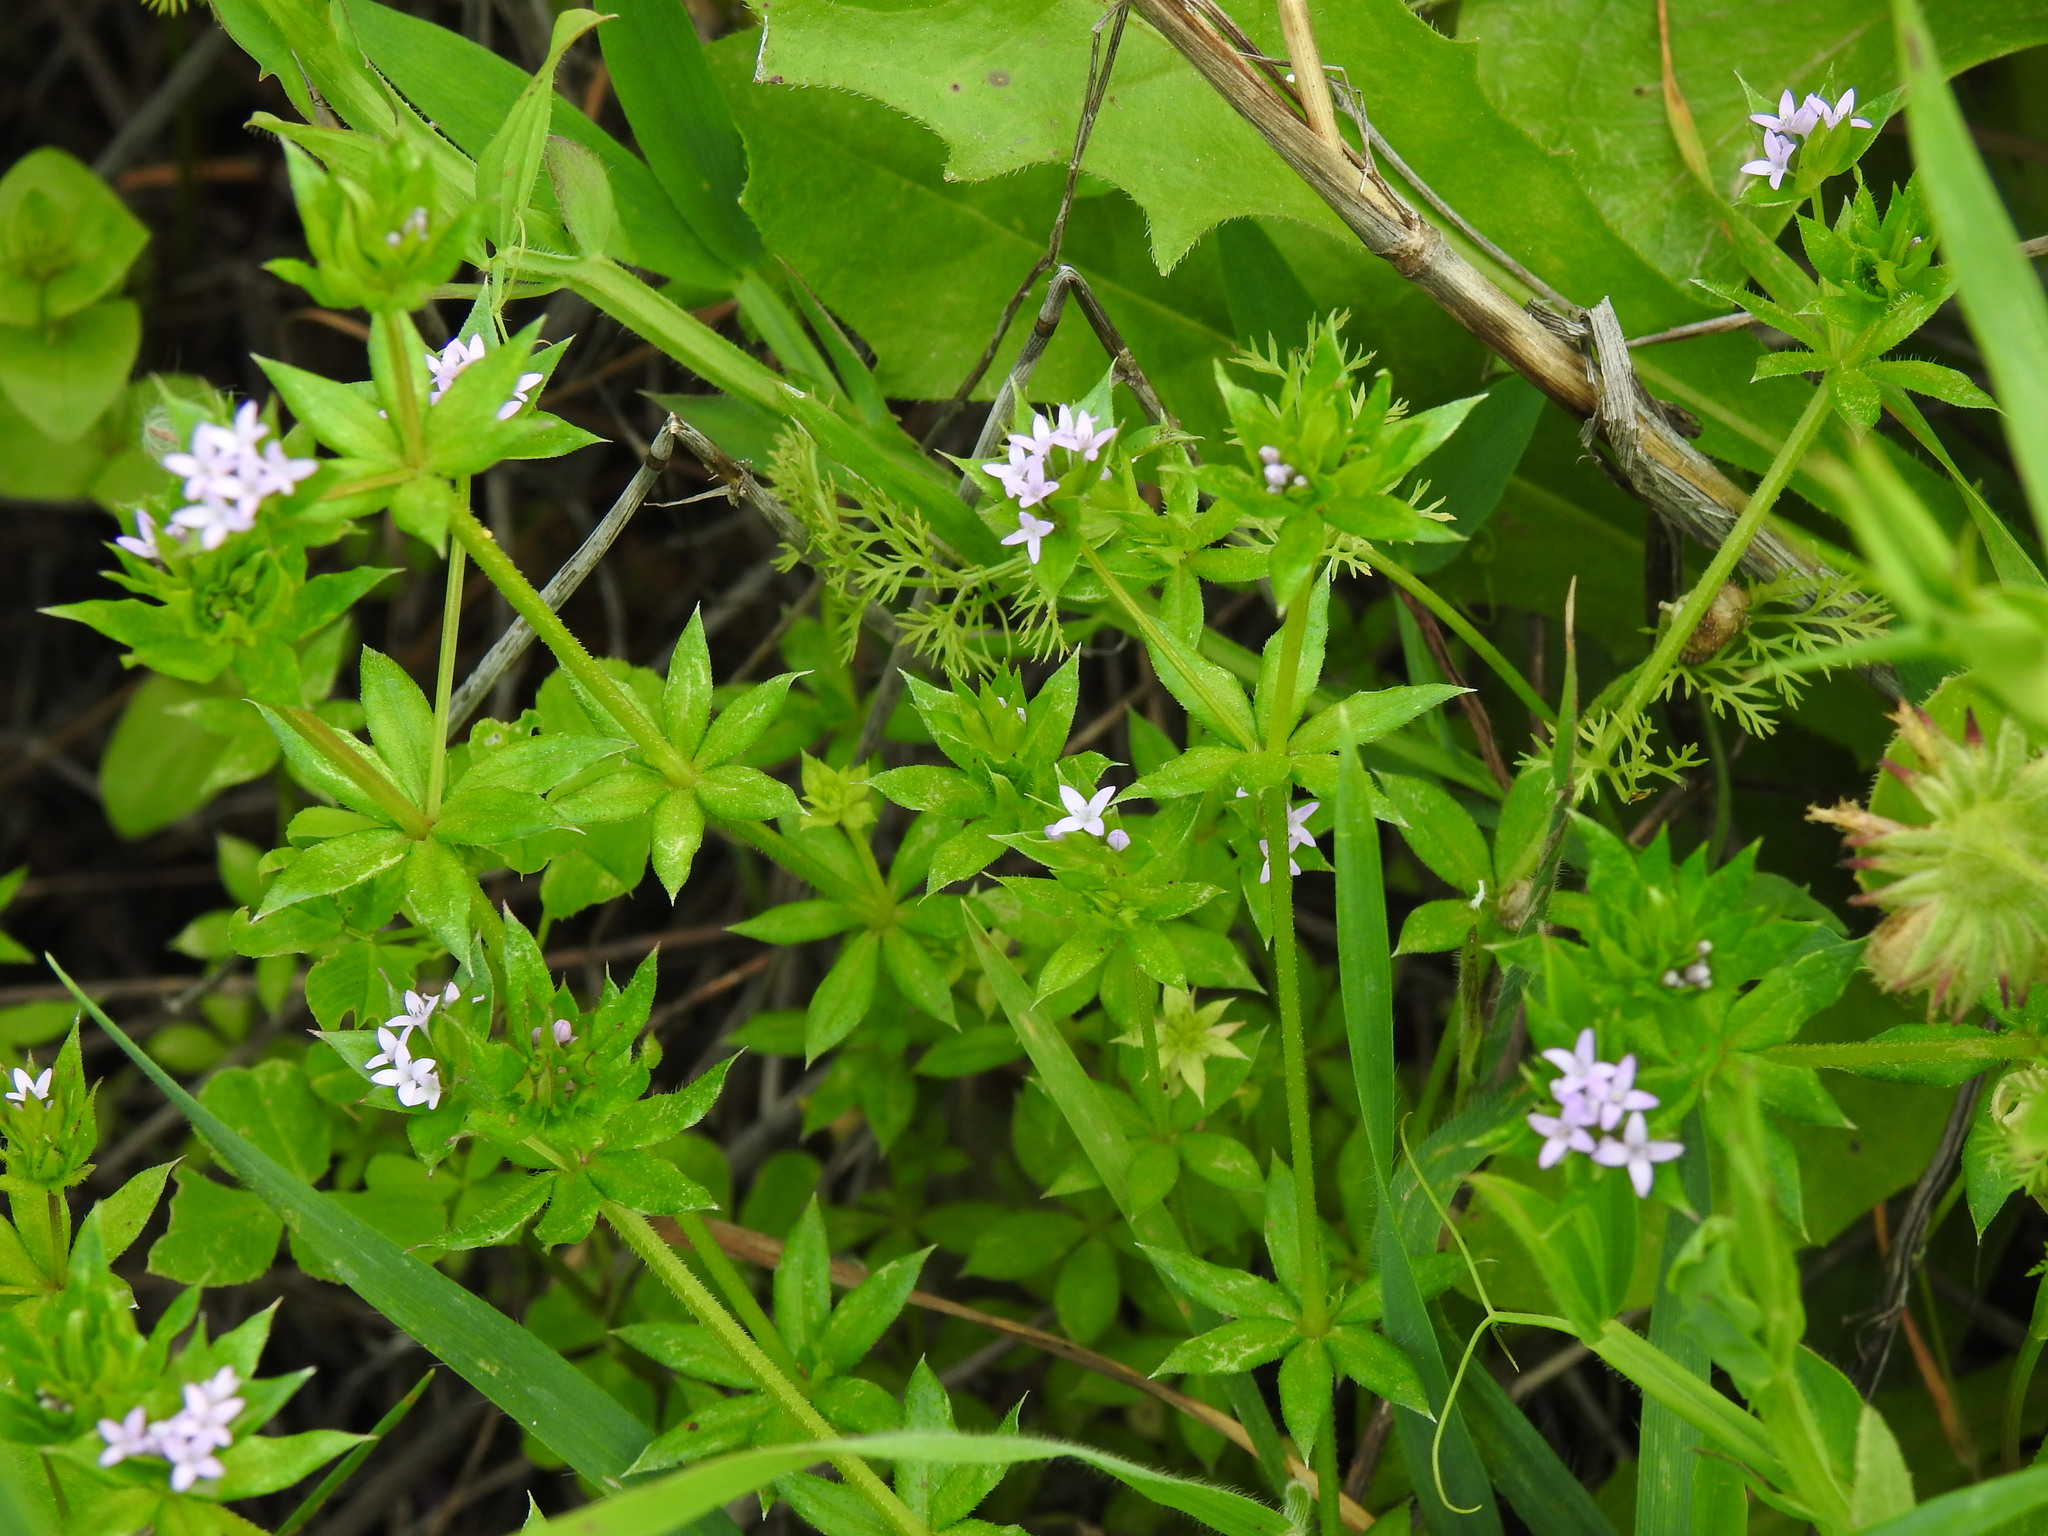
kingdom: Plantae
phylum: Tracheophyta
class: Magnoliopsida
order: Gentianales
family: Rubiaceae
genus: Sherardia
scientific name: Sherardia arvensis
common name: Field madder
